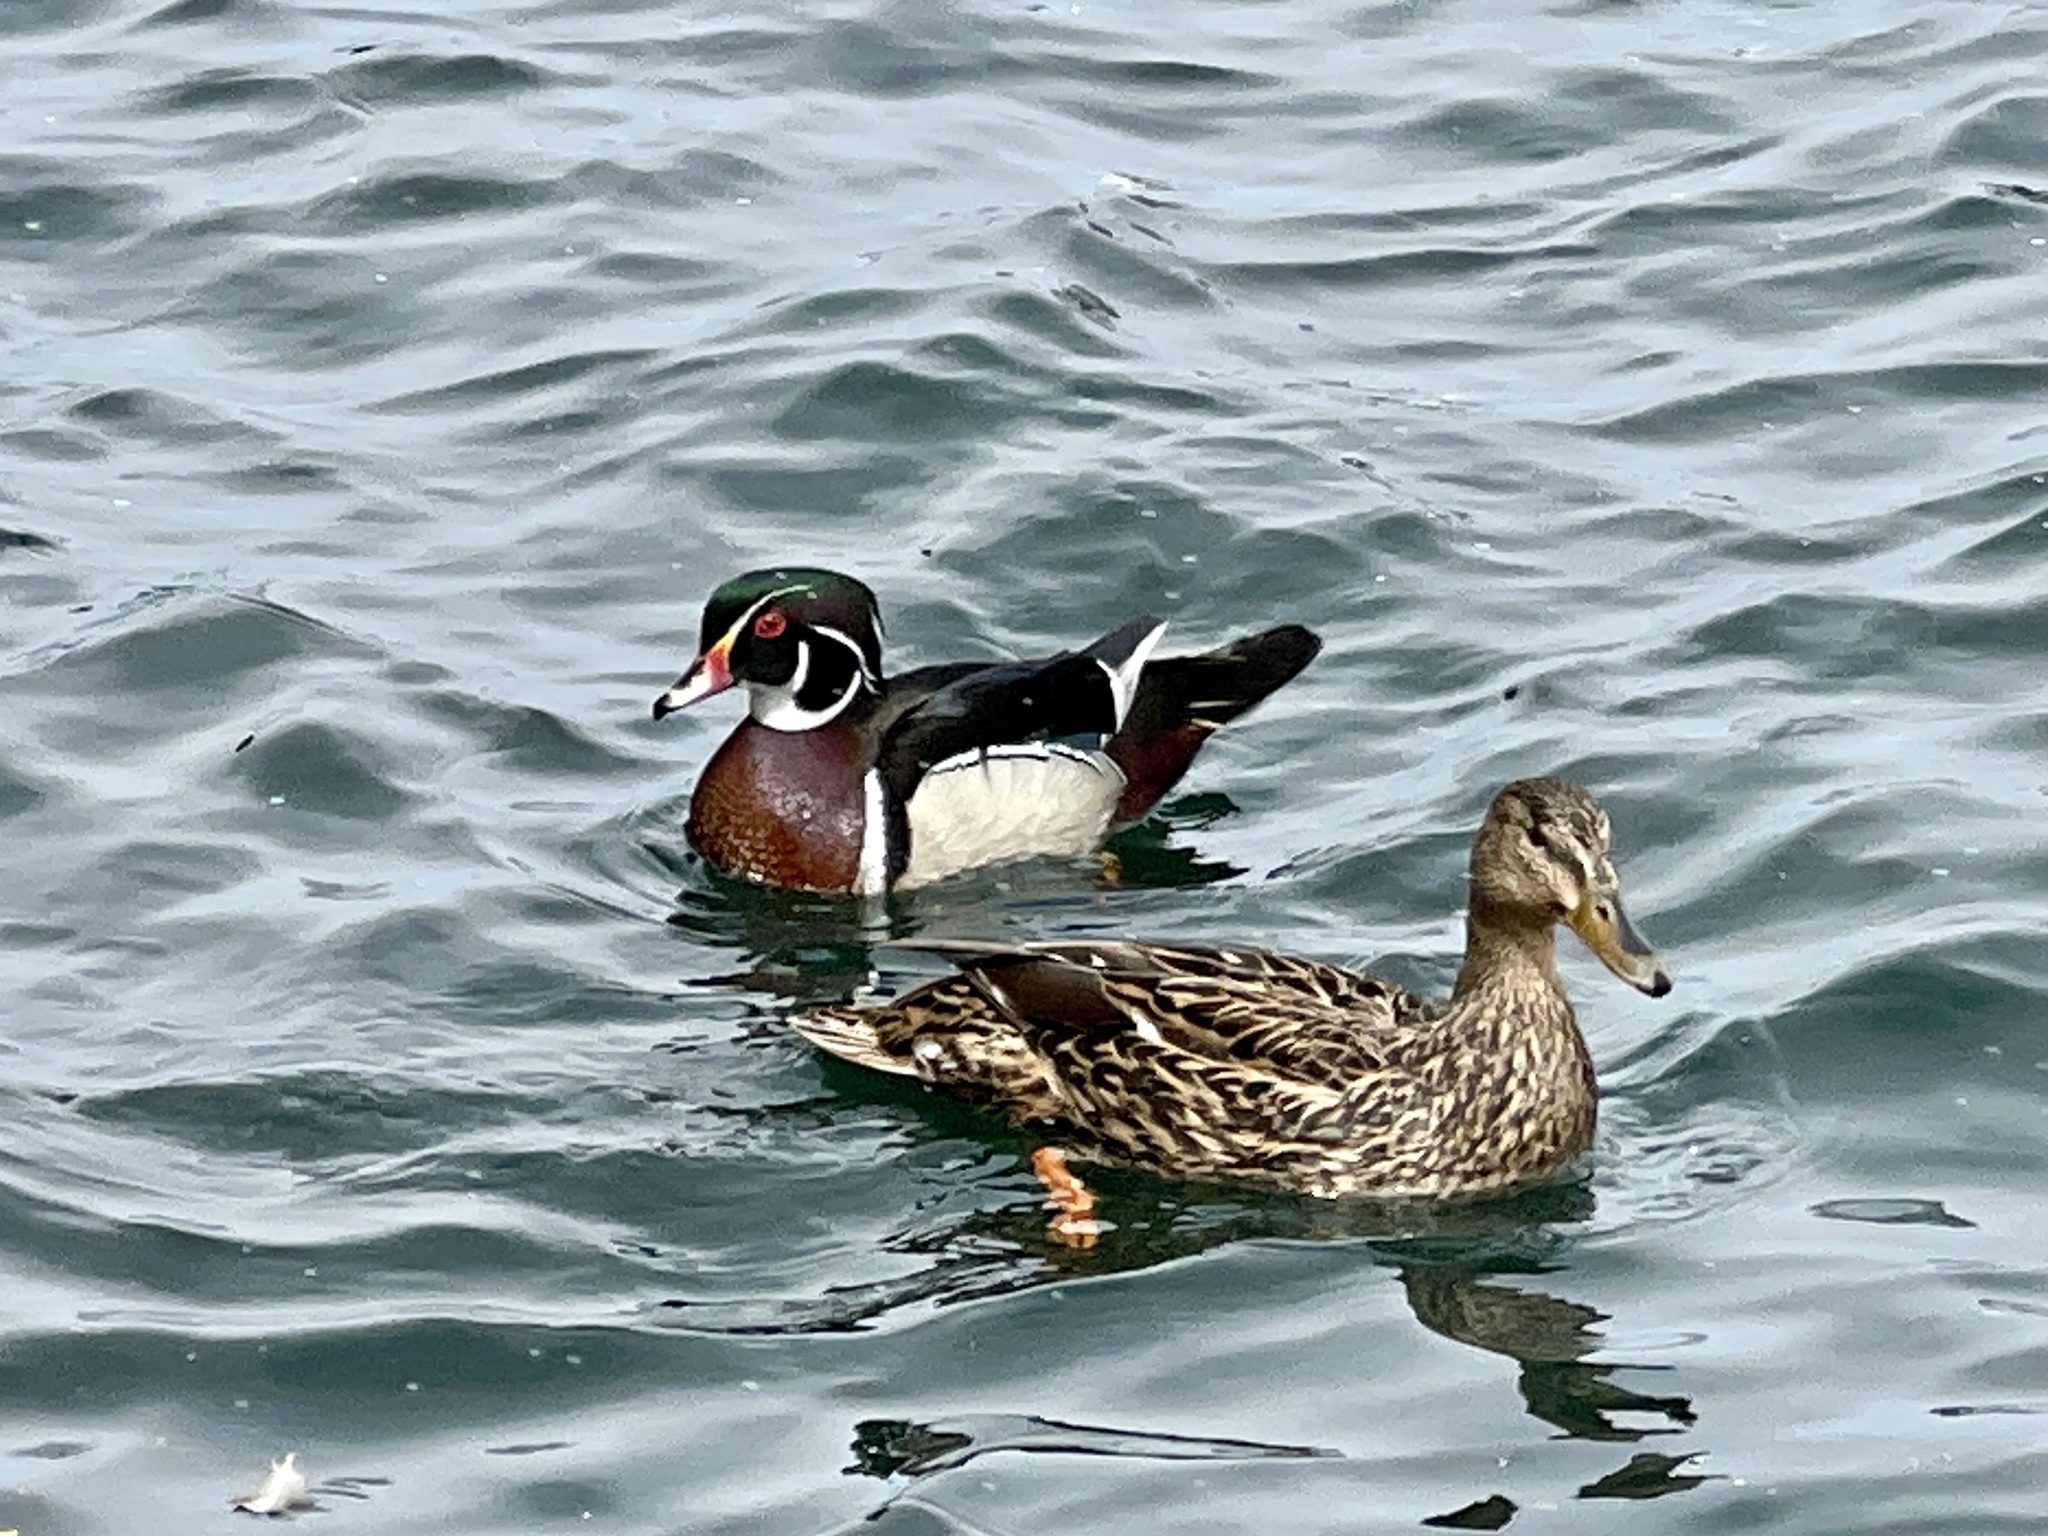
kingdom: Animalia
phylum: Chordata
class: Aves
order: Anseriformes
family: Anatidae
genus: Aix
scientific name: Aix sponsa
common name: Wood duck
